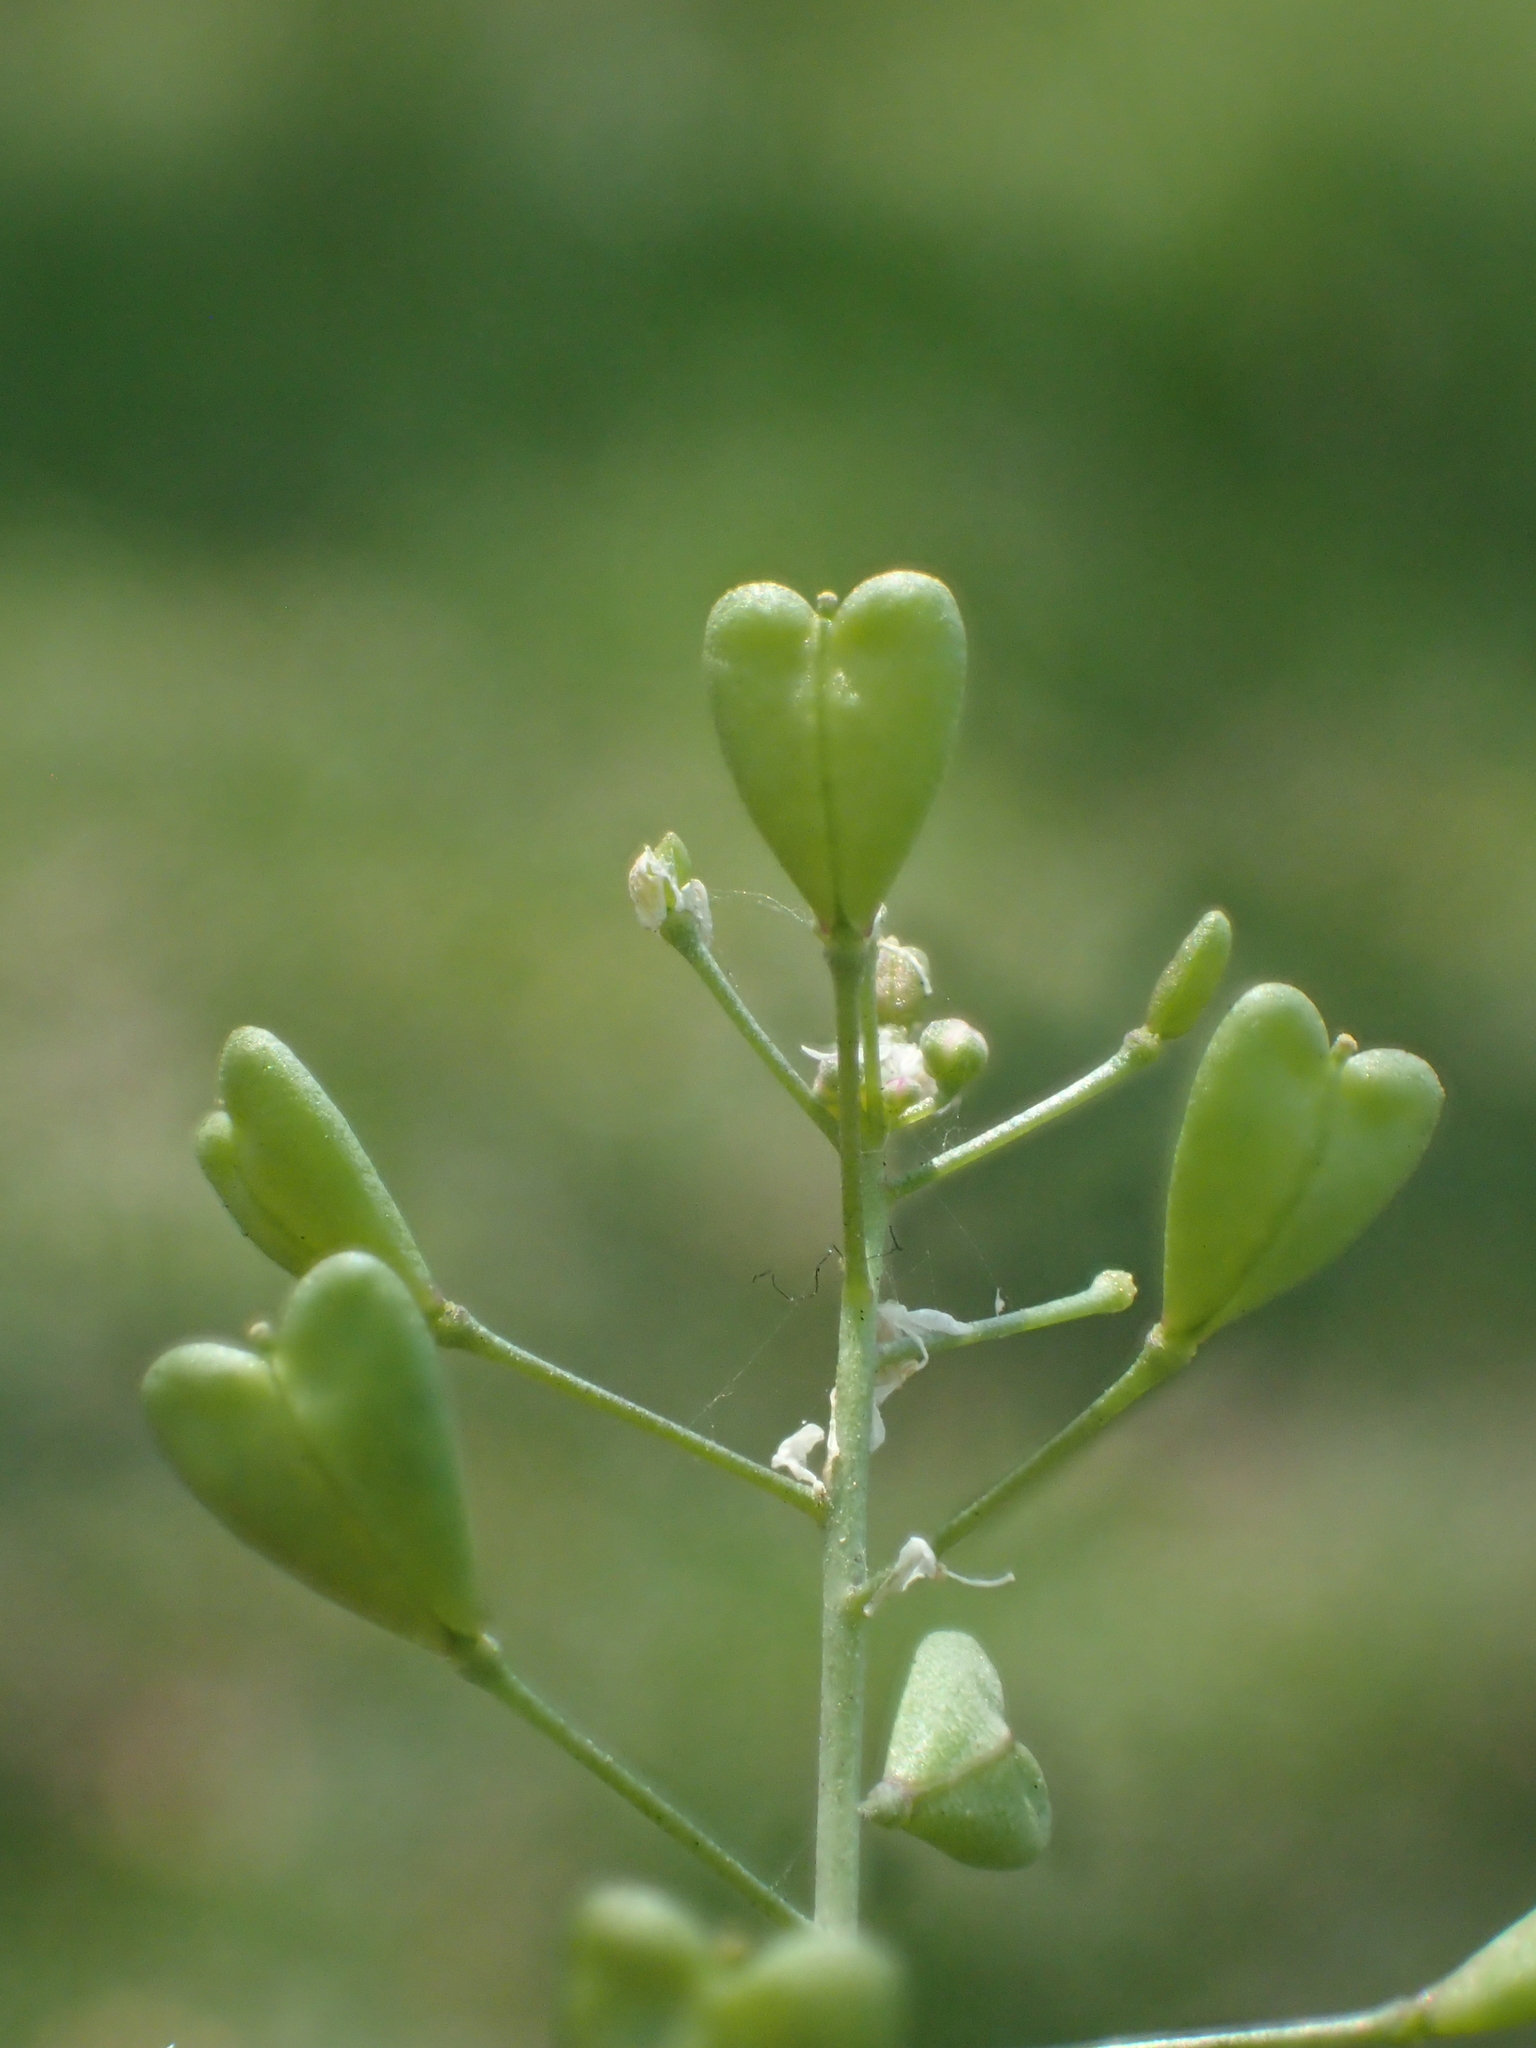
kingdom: Plantae
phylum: Tracheophyta
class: Magnoliopsida
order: Brassicales
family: Brassicaceae
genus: Capsella
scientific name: Capsella bursa-pastoris
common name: Shepherd's purse
